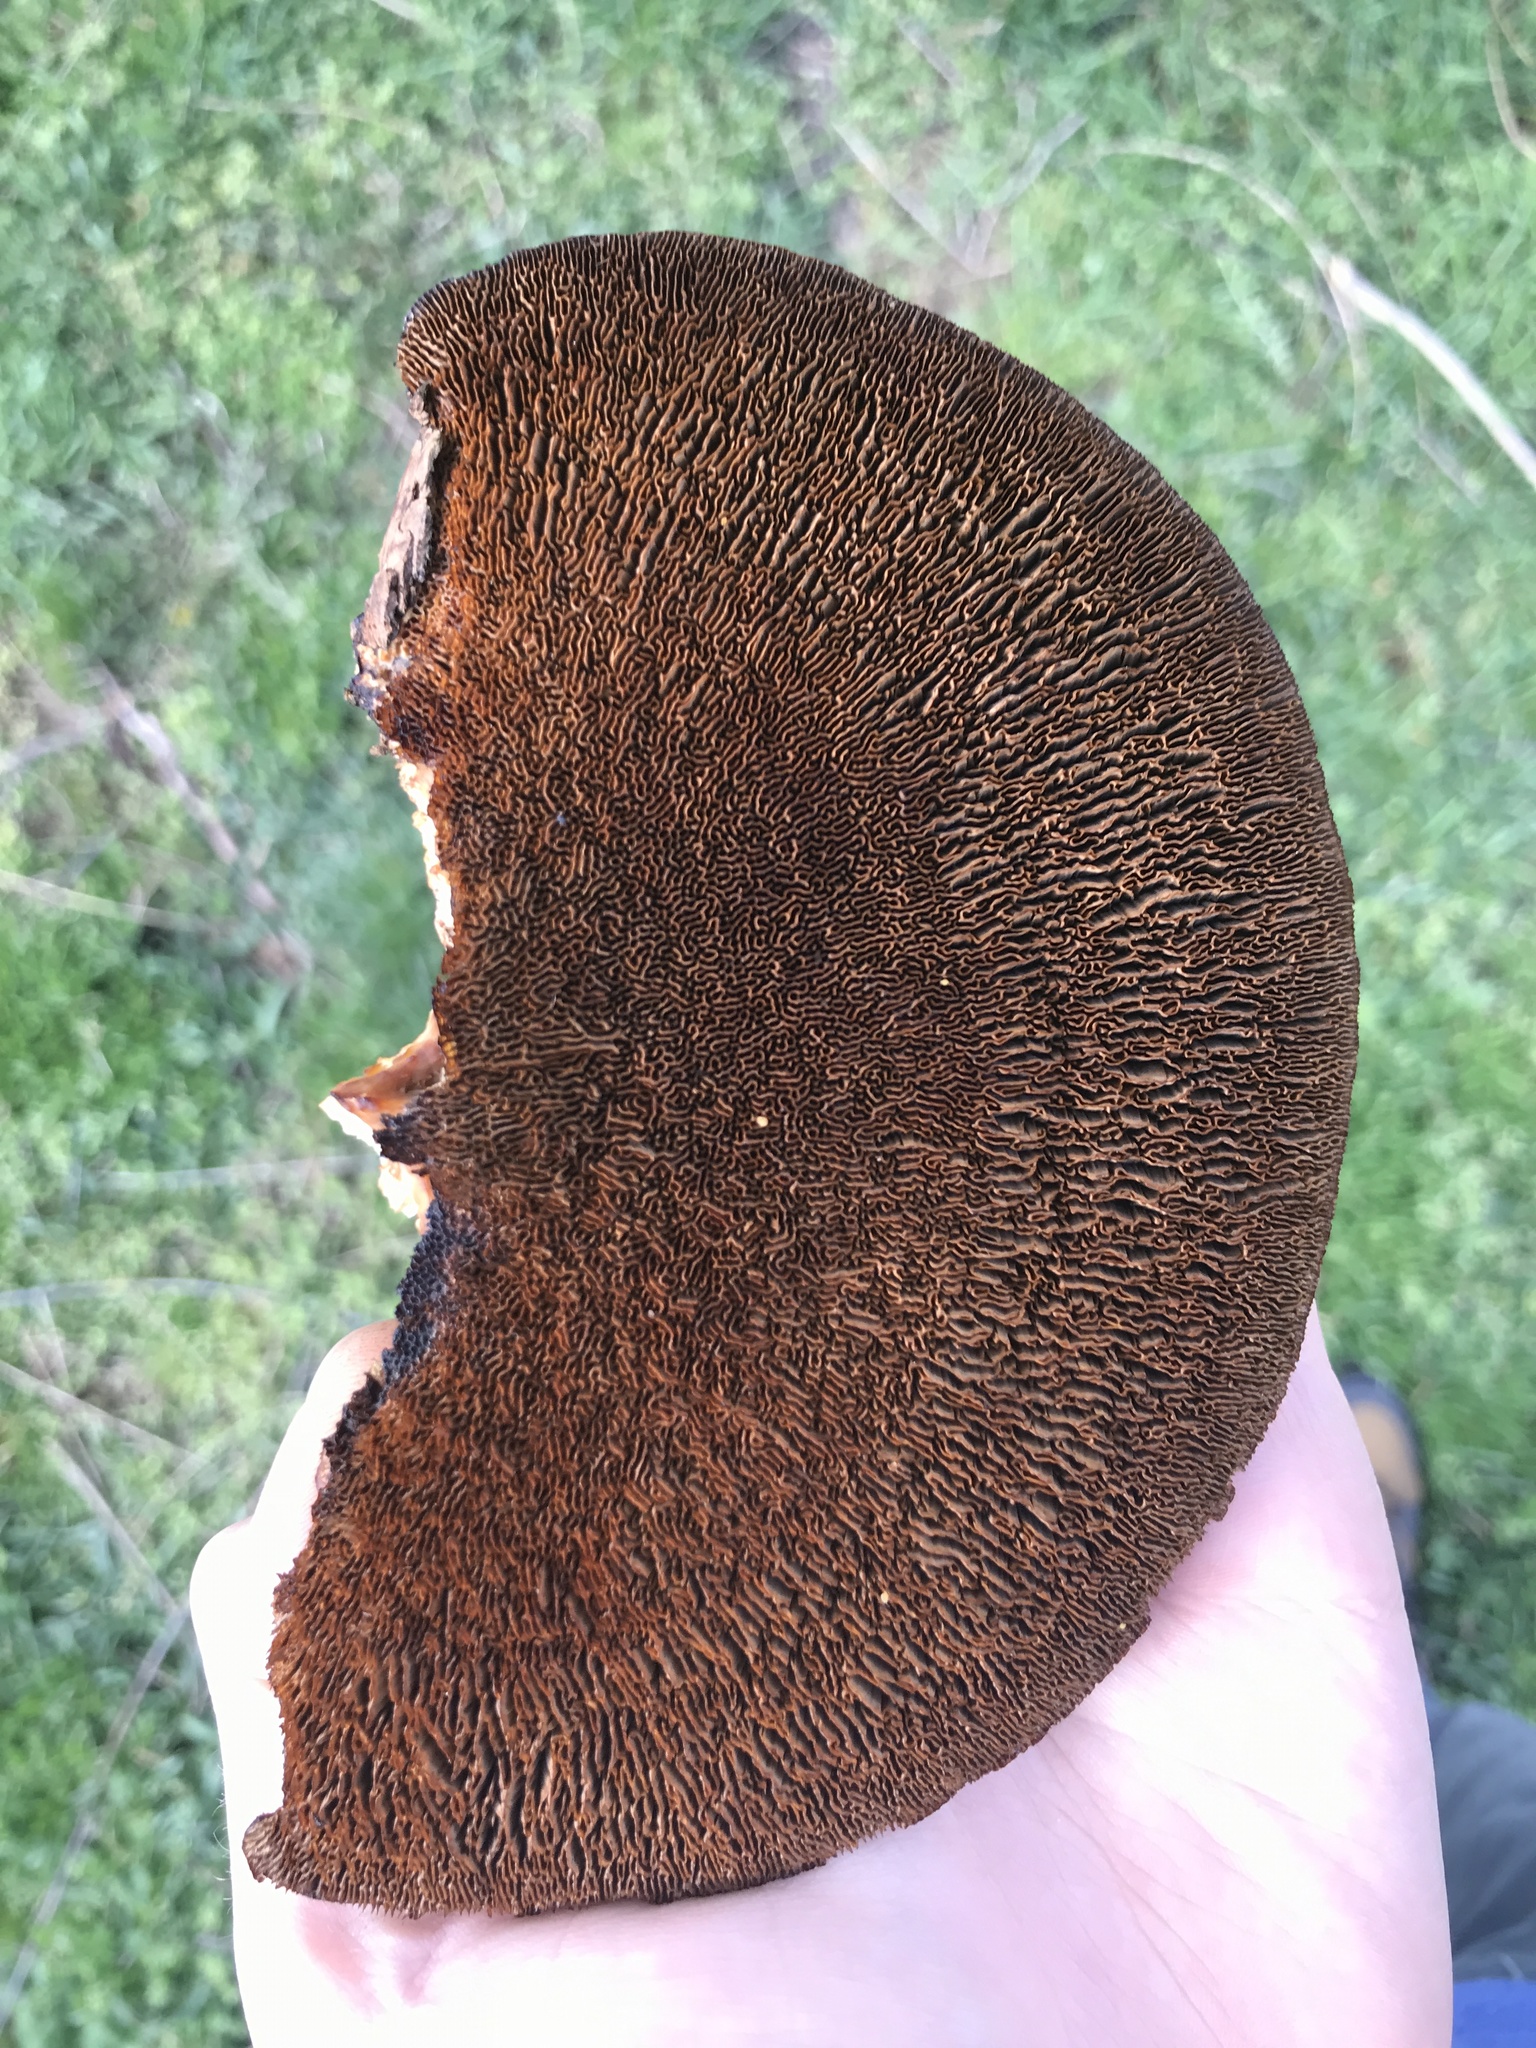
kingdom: Fungi
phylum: Basidiomycota
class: Agaricomycetes
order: Polyporales
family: Polyporaceae
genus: Daedaleopsis
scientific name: Daedaleopsis confragosa
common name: Blushing bracket
